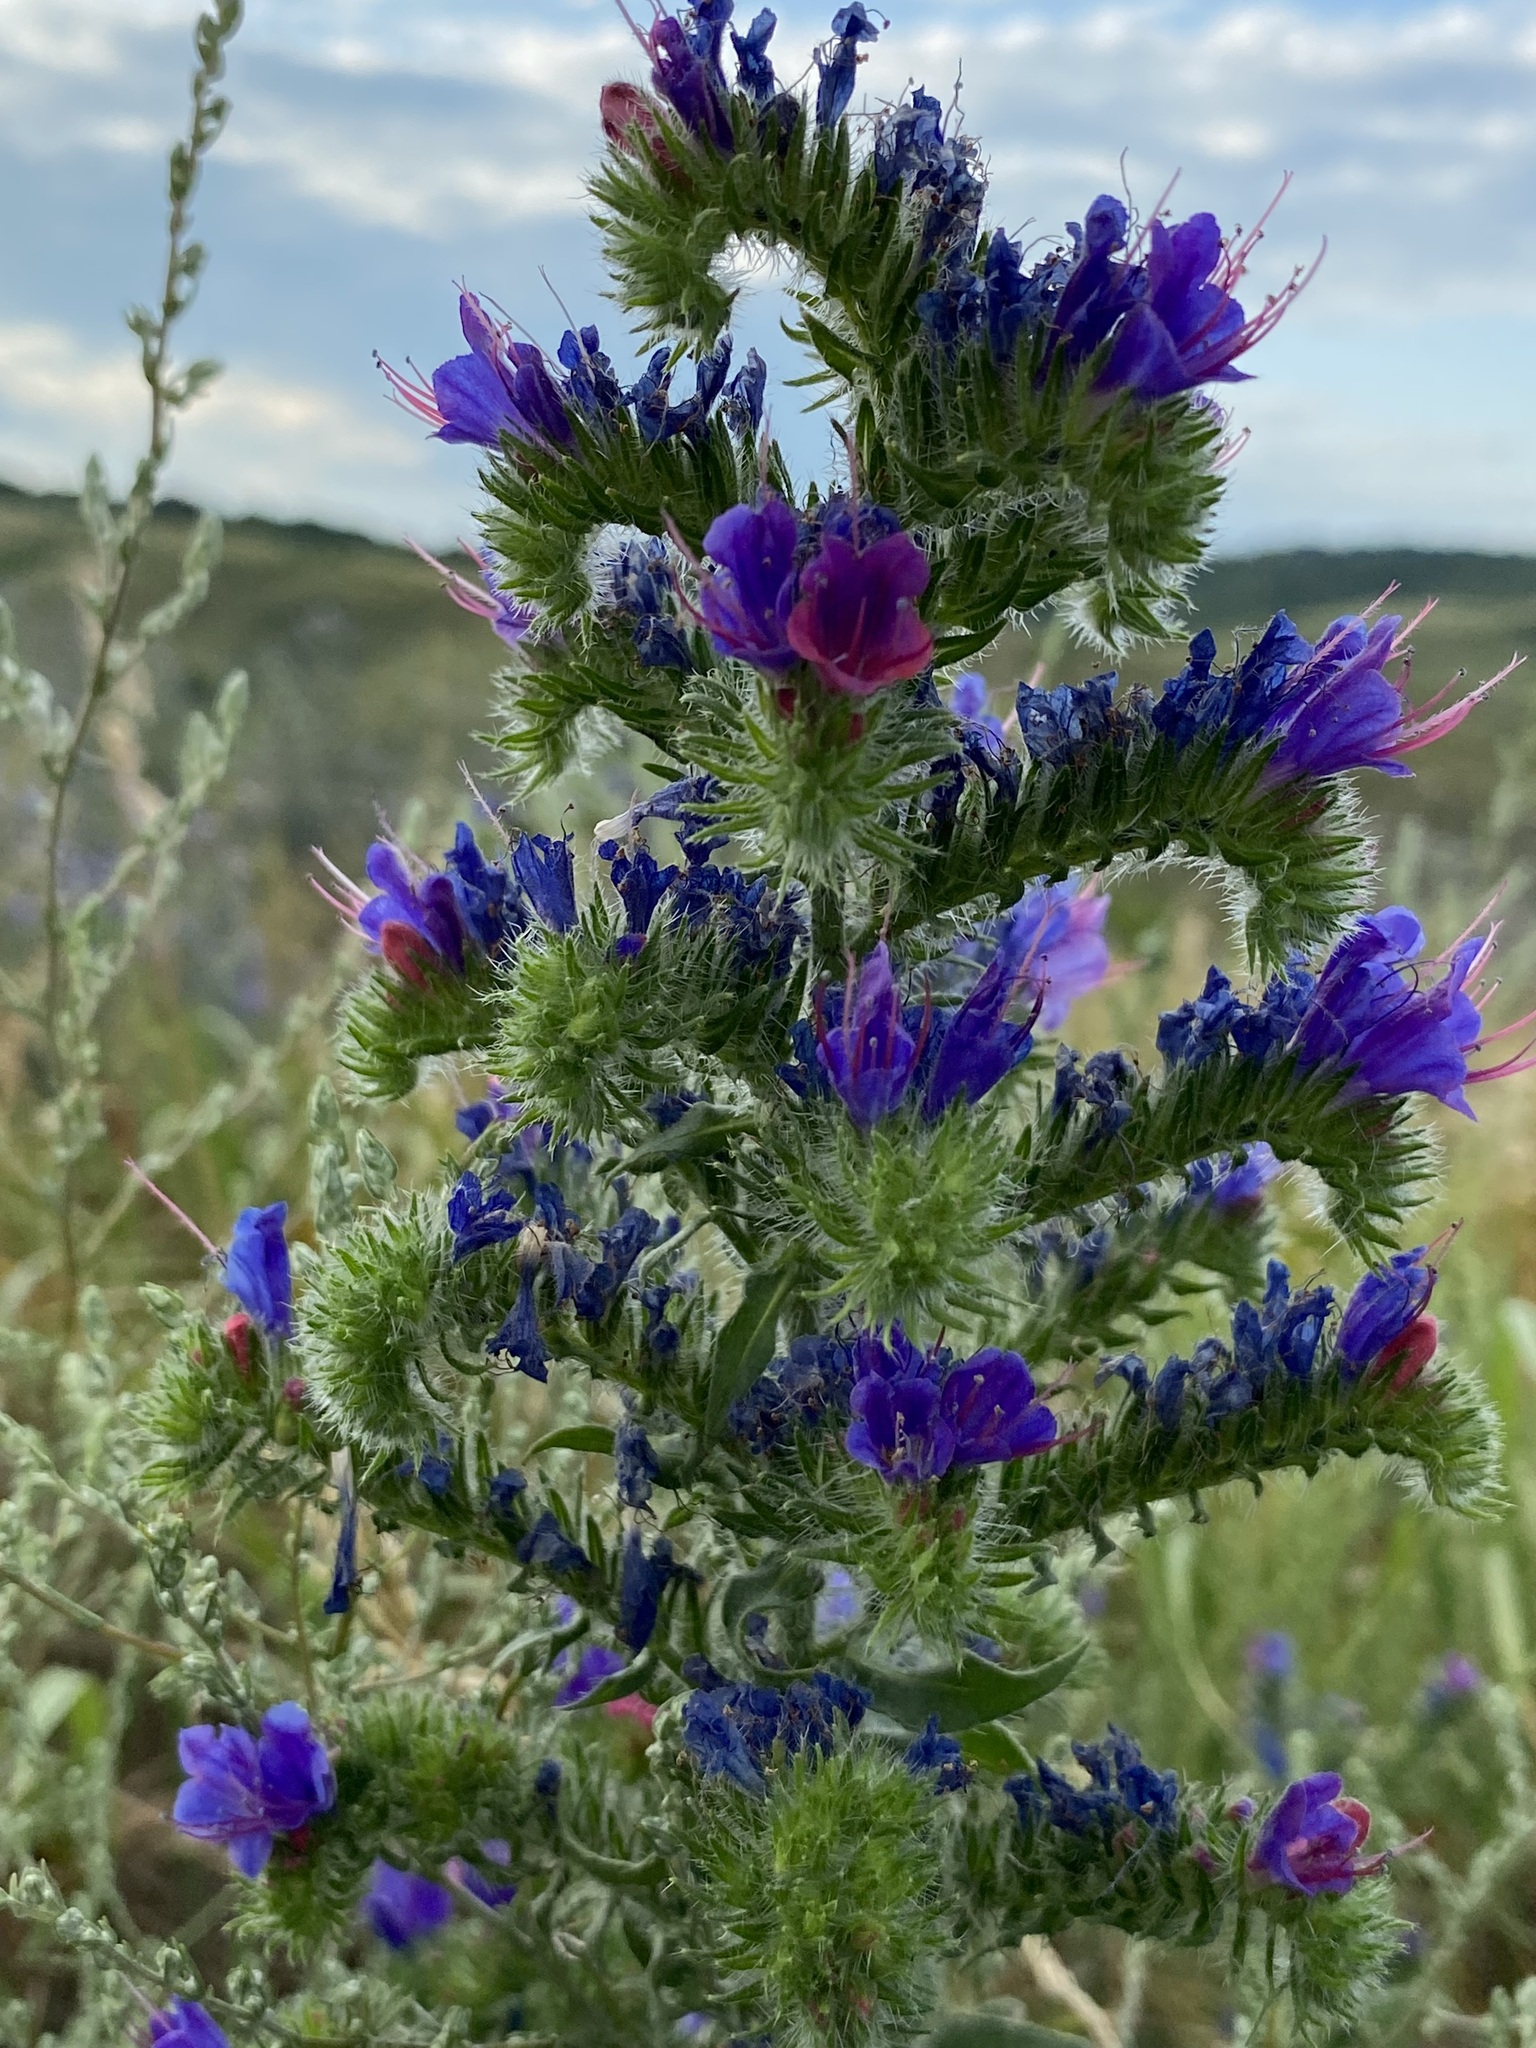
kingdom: Plantae
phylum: Tracheophyta
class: Magnoliopsida
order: Boraginales
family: Boraginaceae
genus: Echium
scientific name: Echium vulgare
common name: Common viper's bugloss
